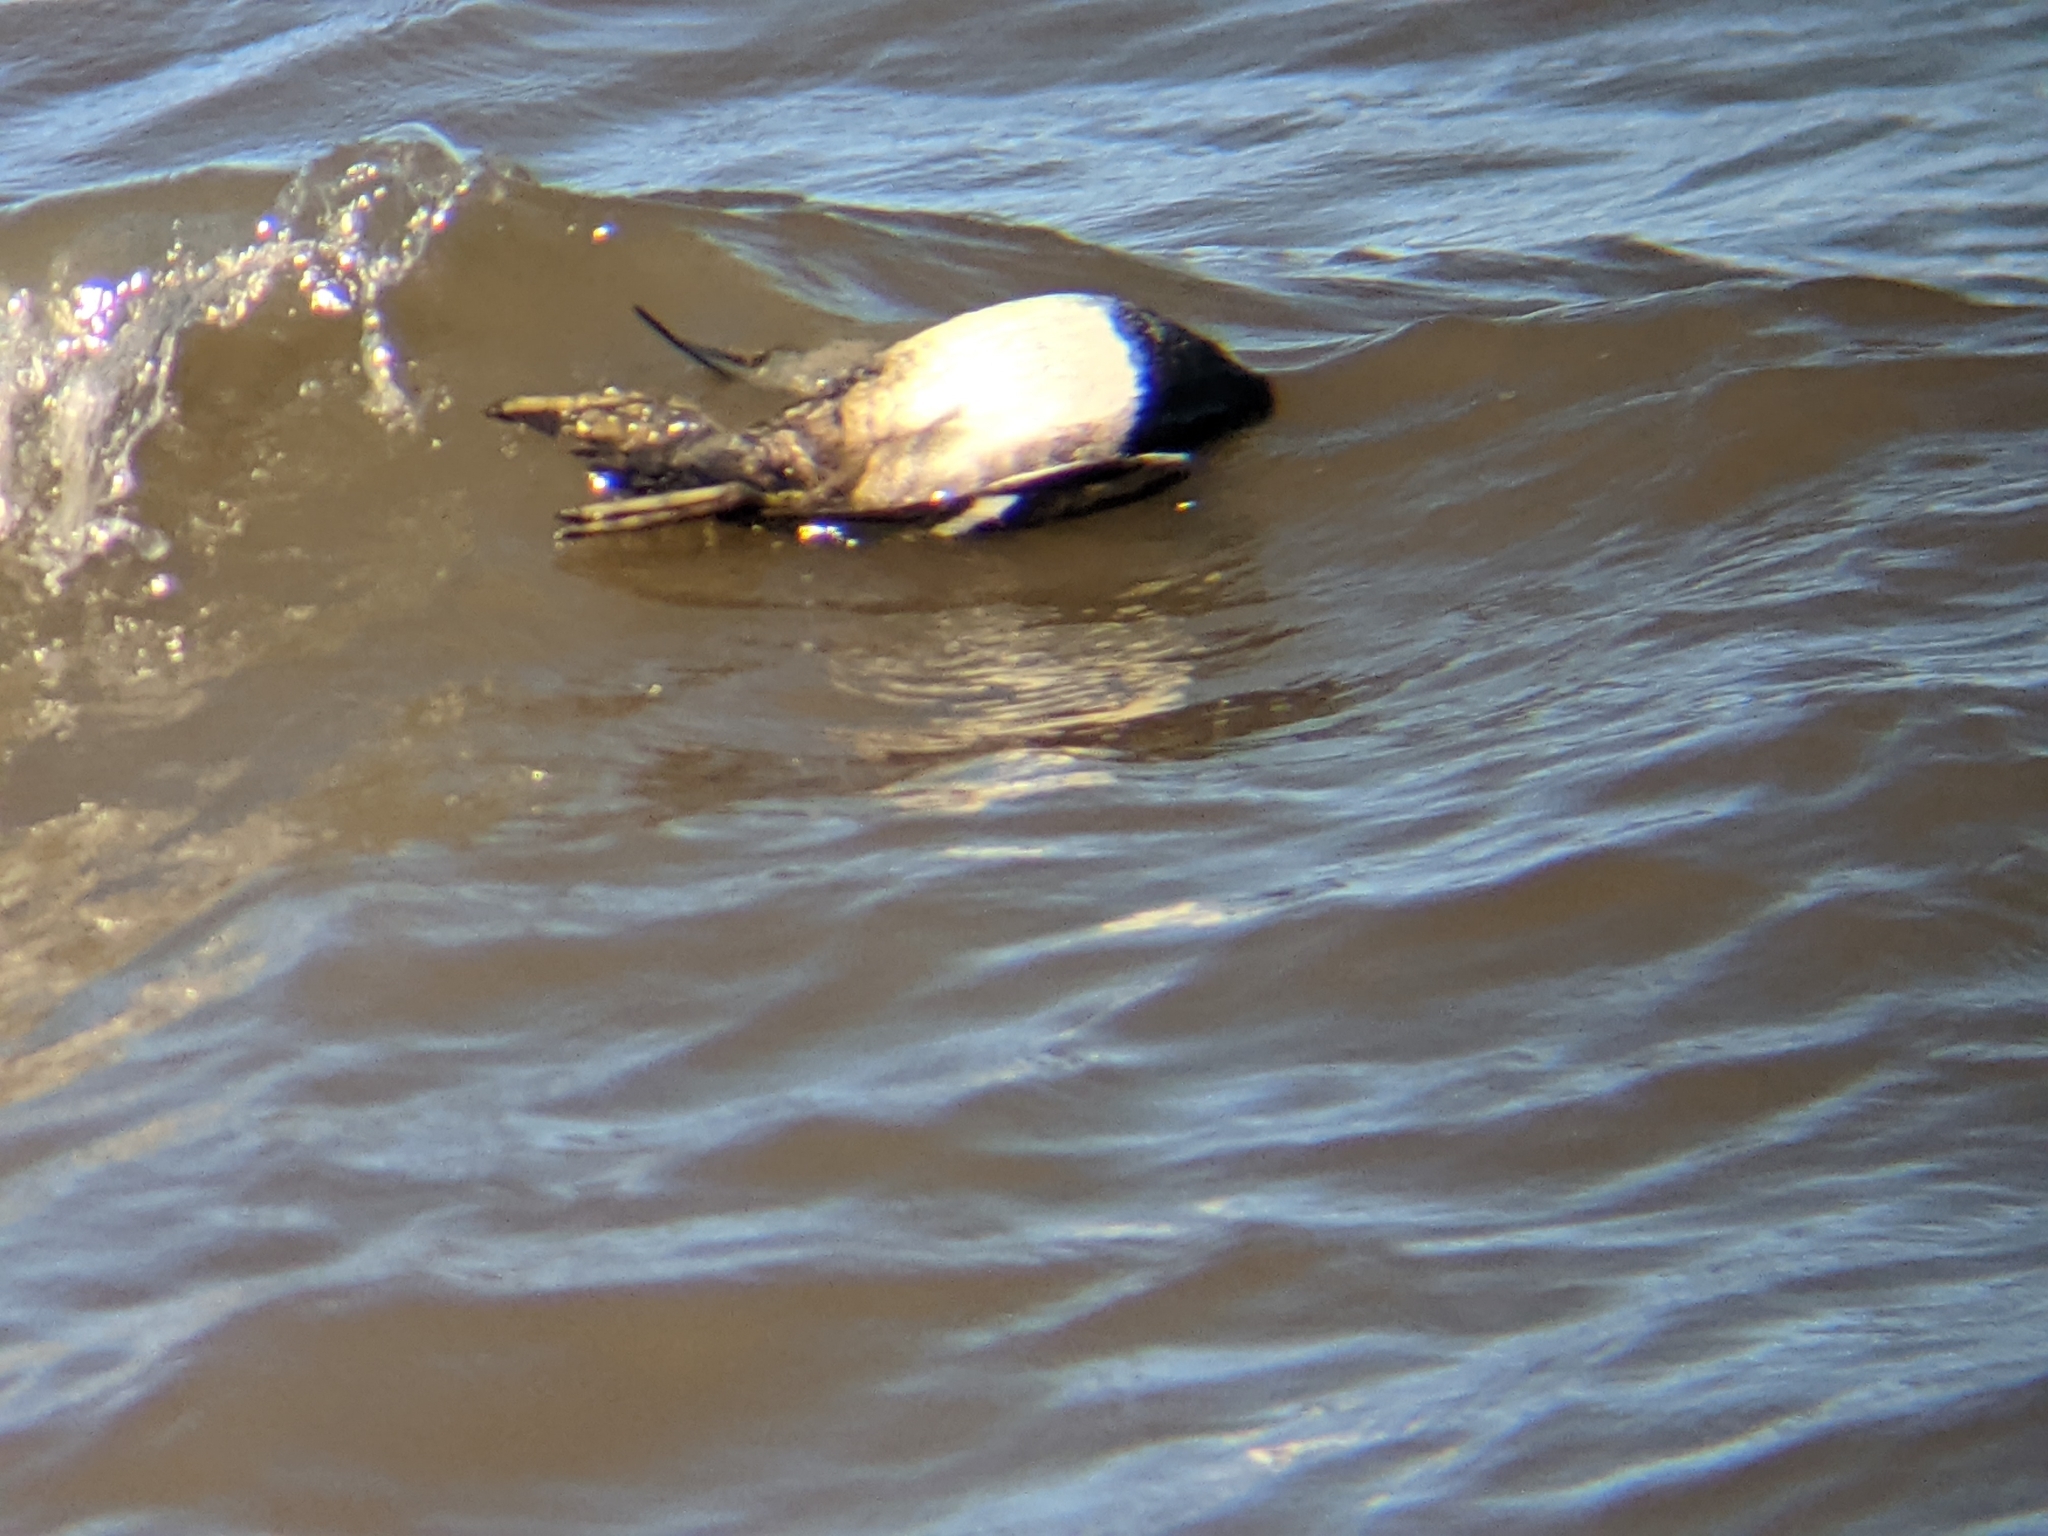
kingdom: Animalia
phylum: Chordata
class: Aves
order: Anseriformes
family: Anatidae
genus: Aythya
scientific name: Aythya
